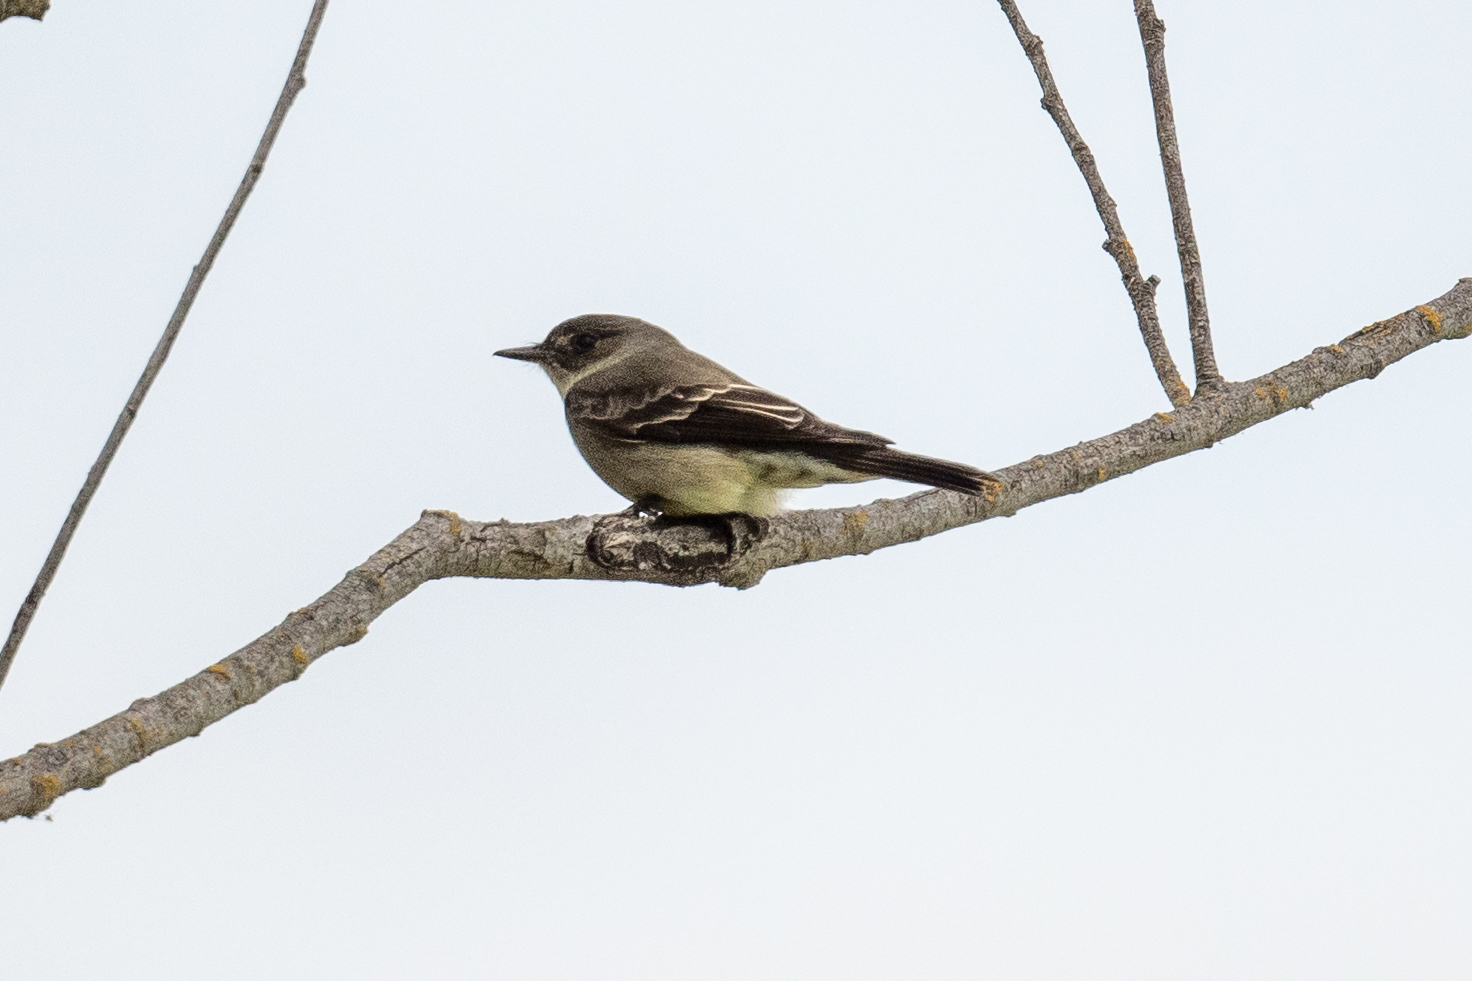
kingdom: Animalia
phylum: Chordata
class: Aves
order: Passeriformes
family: Tyrannidae
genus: Contopus
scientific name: Contopus sordidulus
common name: Western wood-pewee
